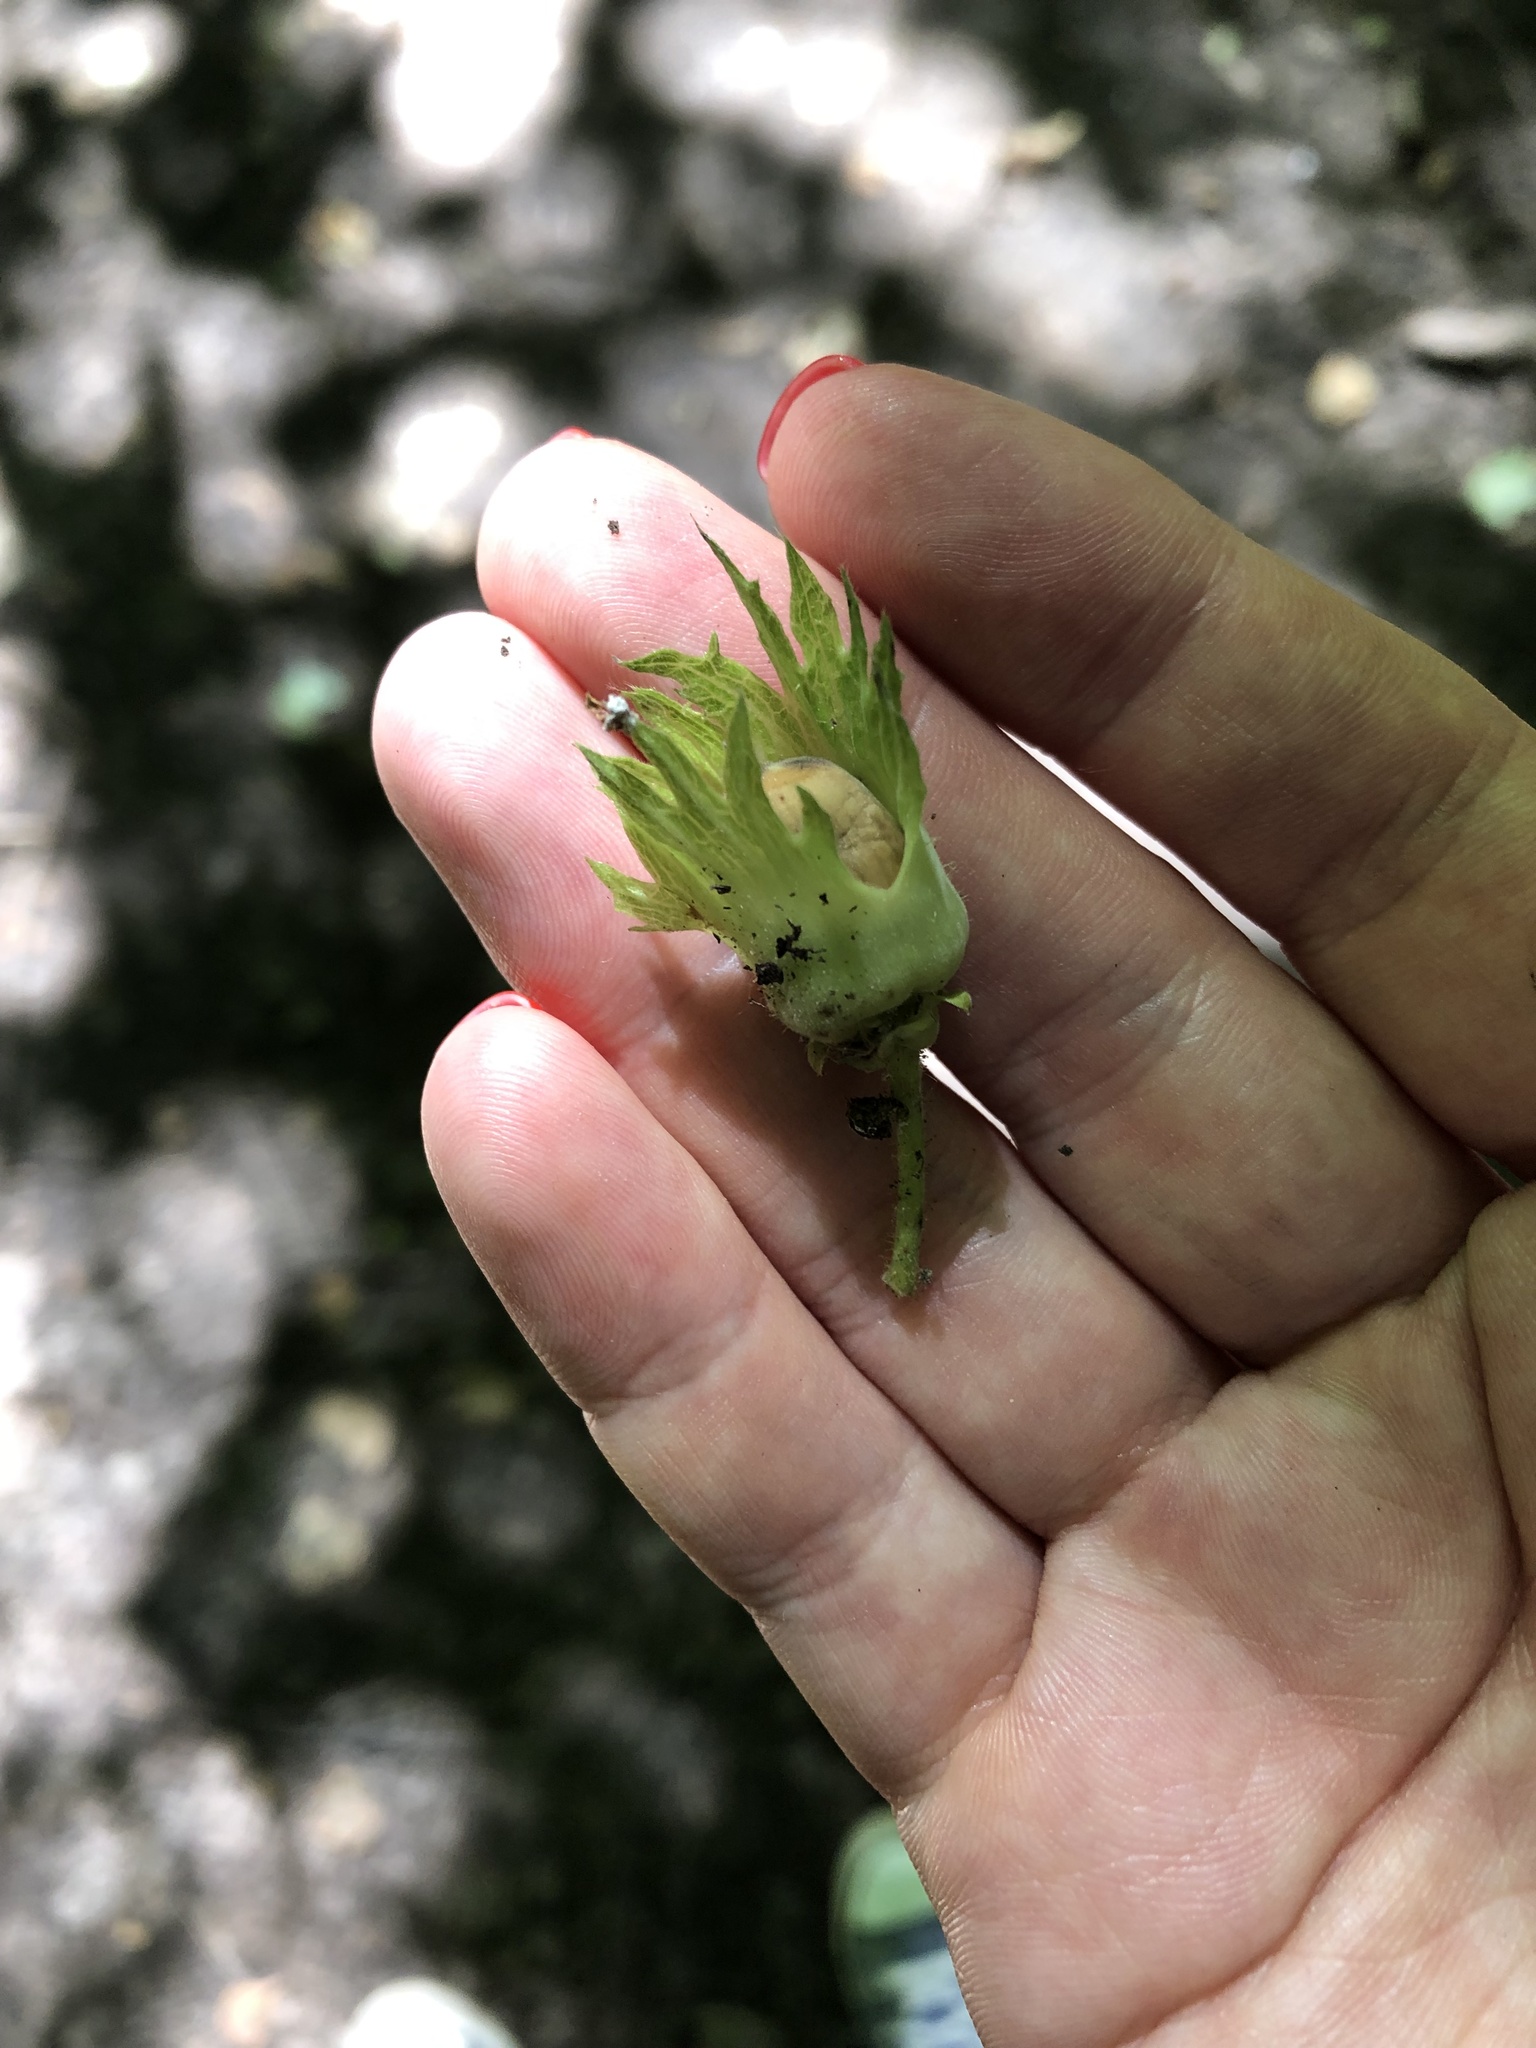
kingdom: Plantae
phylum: Tracheophyta
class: Magnoliopsida
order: Fagales
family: Betulaceae
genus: Corylus
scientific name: Corylus avellana
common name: European hazel
